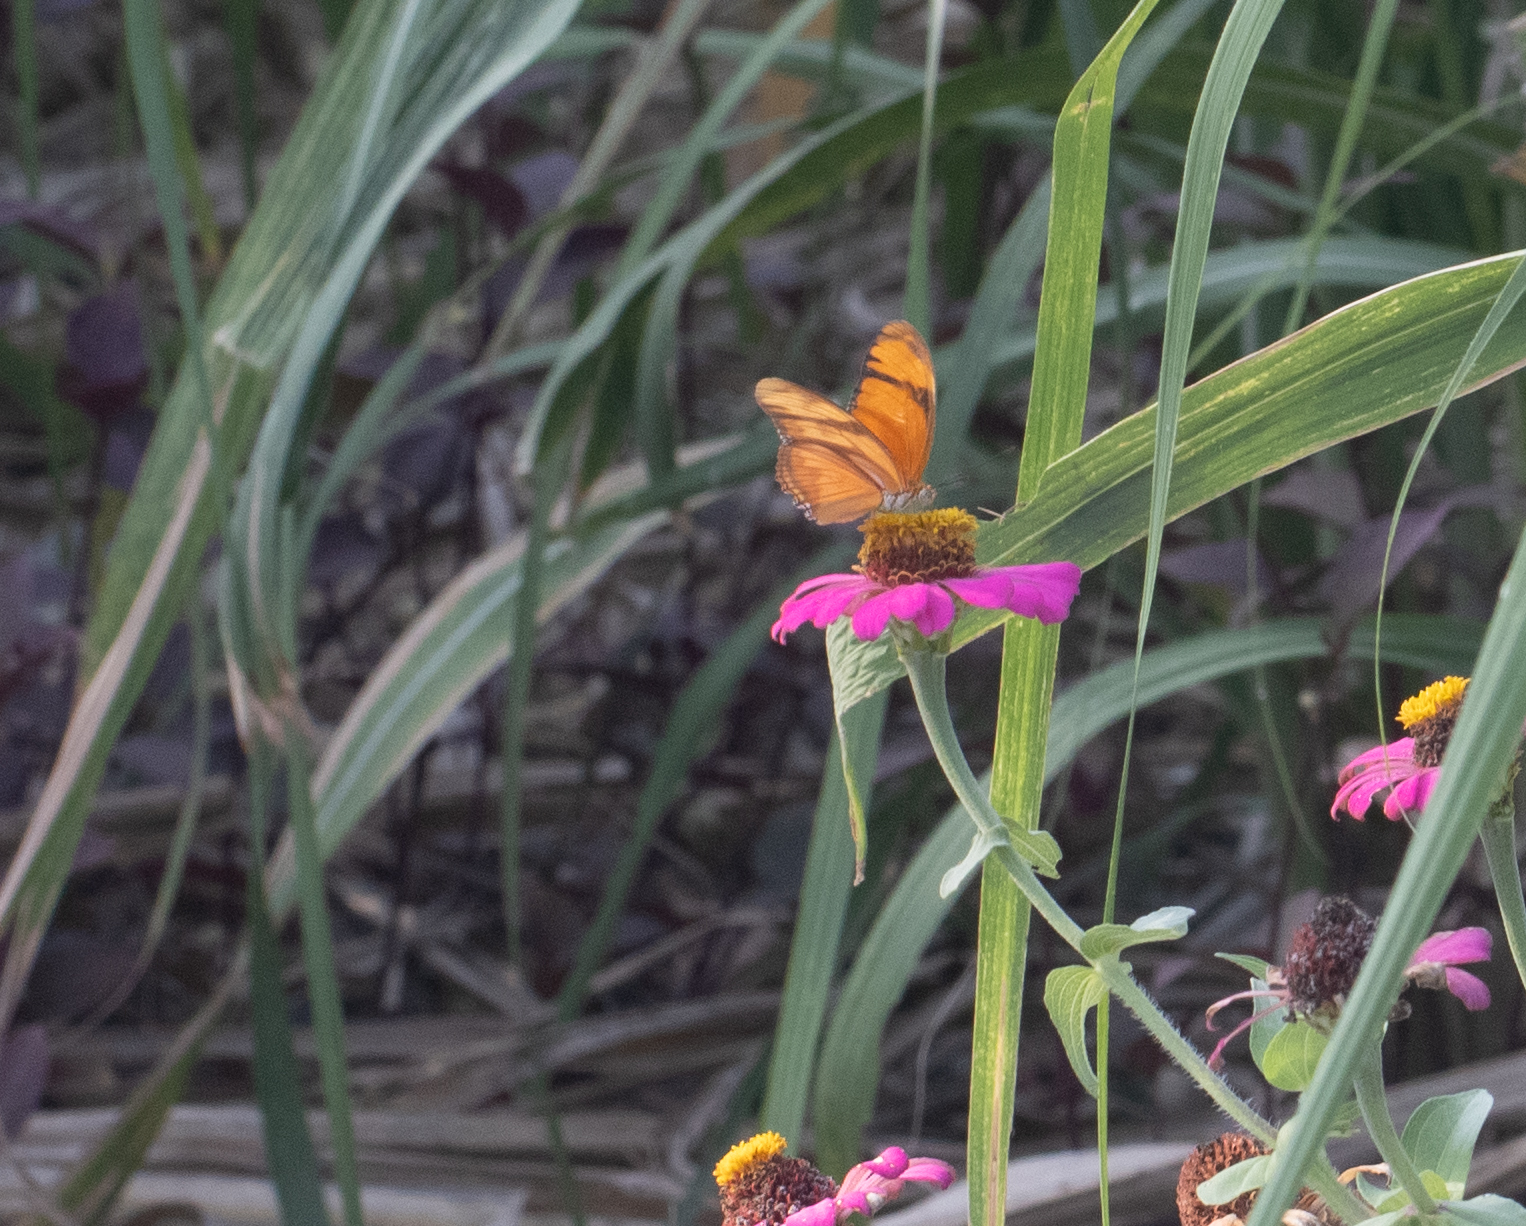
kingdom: Animalia
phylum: Arthropoda
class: Insecta
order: Lepidoptera
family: Nymphalidae
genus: Dryas
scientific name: Dryas iulia
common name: Flambeau
